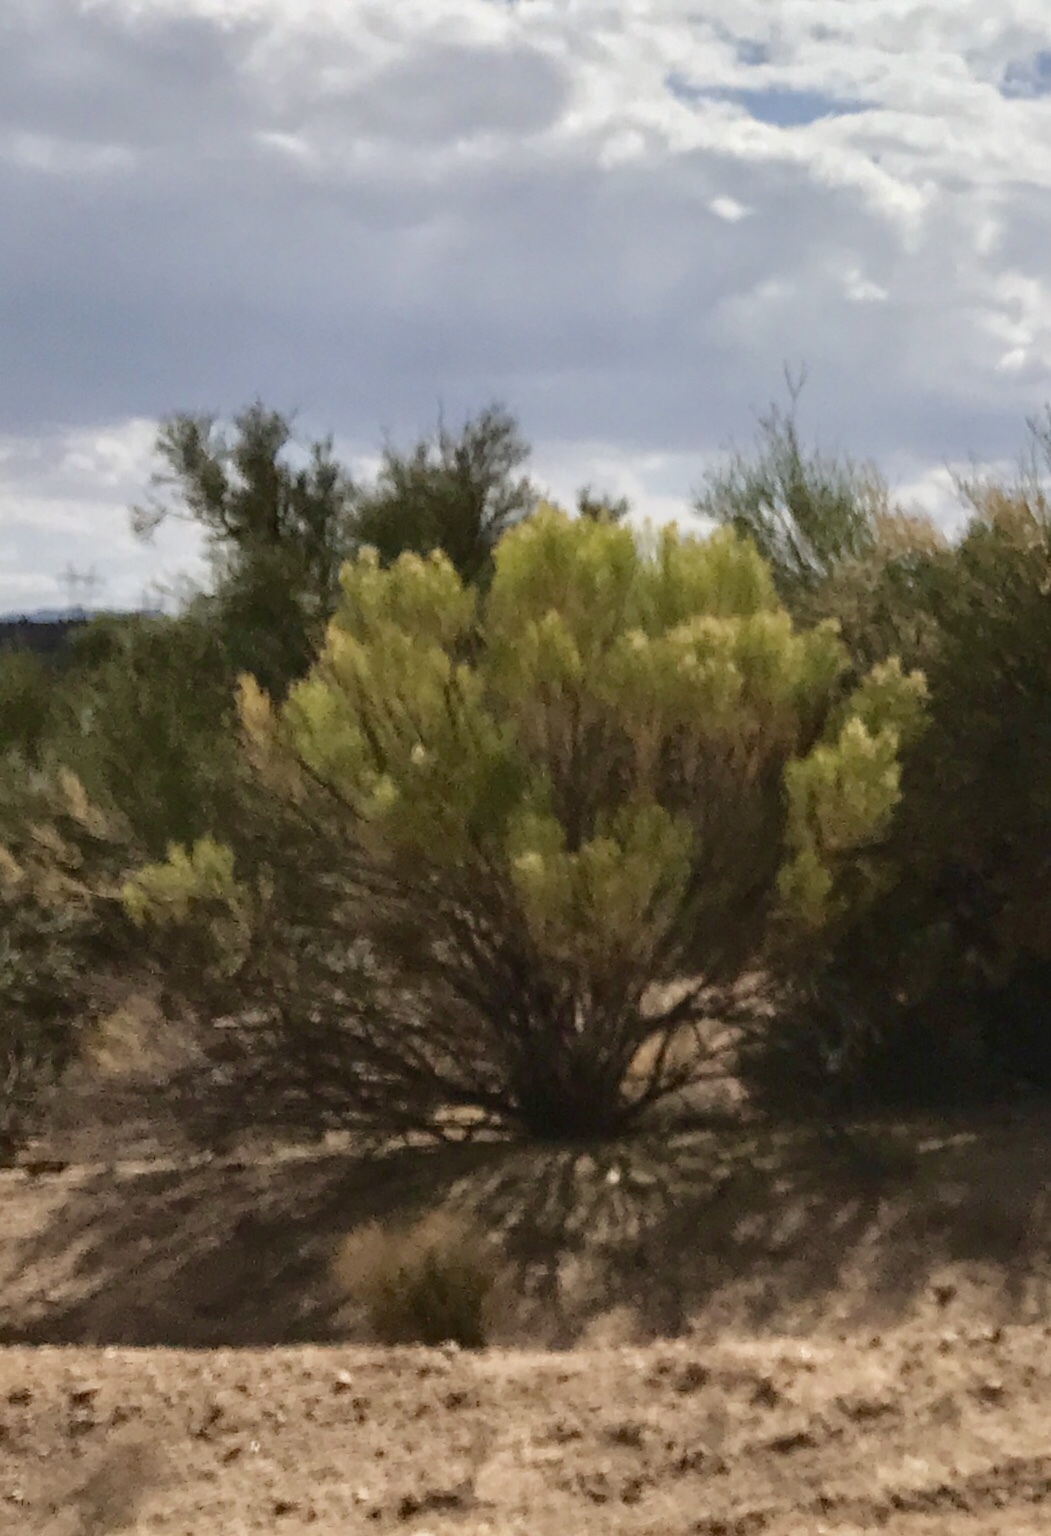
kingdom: Plantae
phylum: Tracheophyta
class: Magnoliopsida
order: Asterales
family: Asteraceae
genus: Baccharis
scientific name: Baccharis sarothroides
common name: Desert-broom
